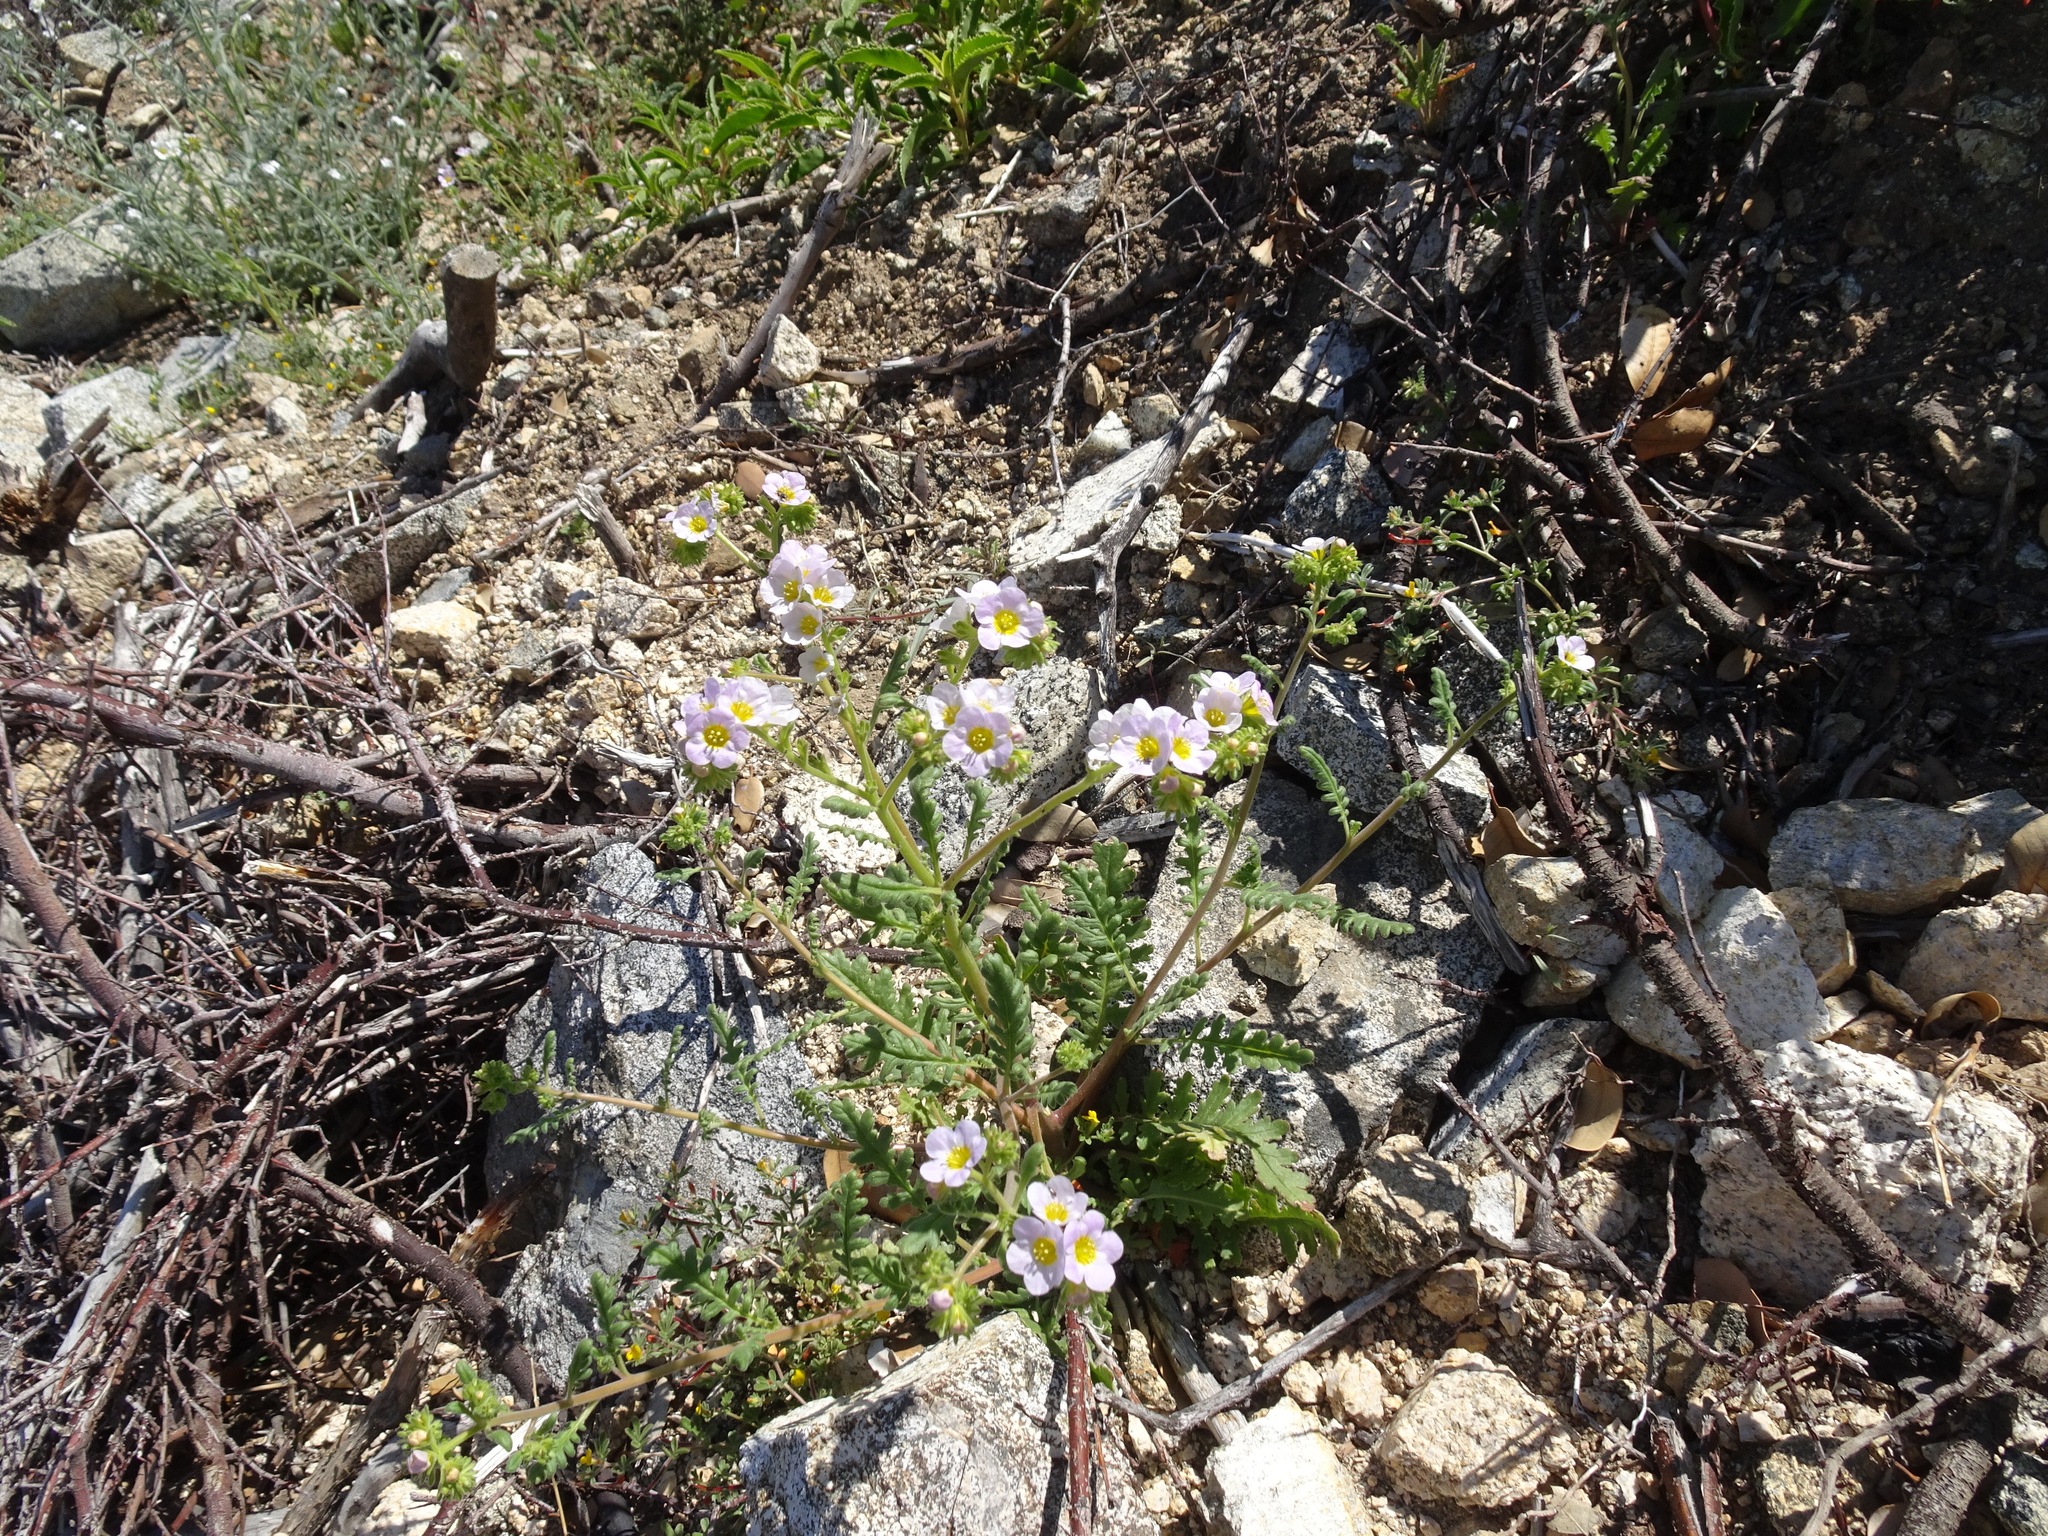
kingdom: Plantae
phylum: Tracheophyta
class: Magnoliopsida
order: Boraginales
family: Hydrophyllaceae
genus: Phacelia
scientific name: Phacelia brachyloba
